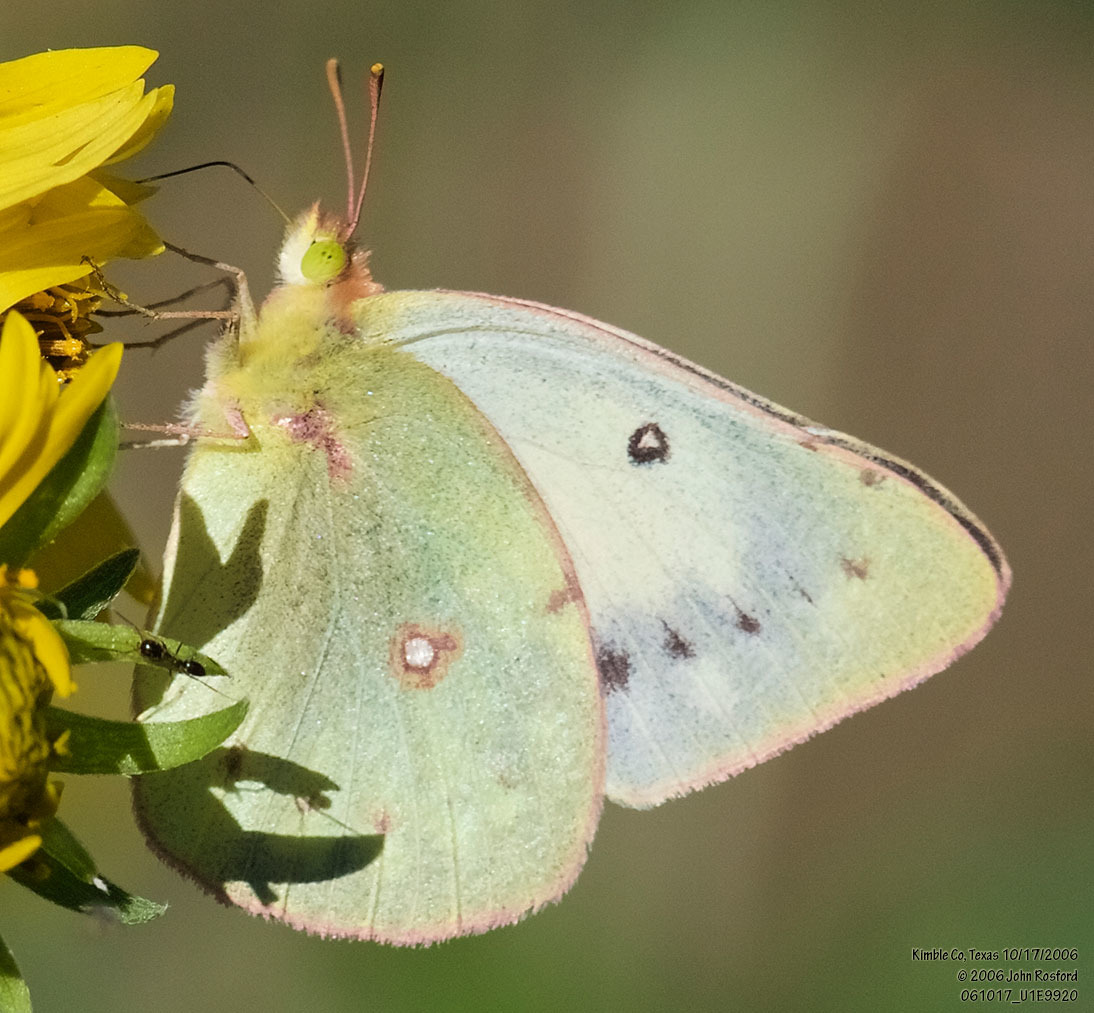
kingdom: Animalia
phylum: Arthropoda
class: Insecta
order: Lepidoptera
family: Pieridae
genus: Colias
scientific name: Colias eurytheme
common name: Alfalfa butterfly
